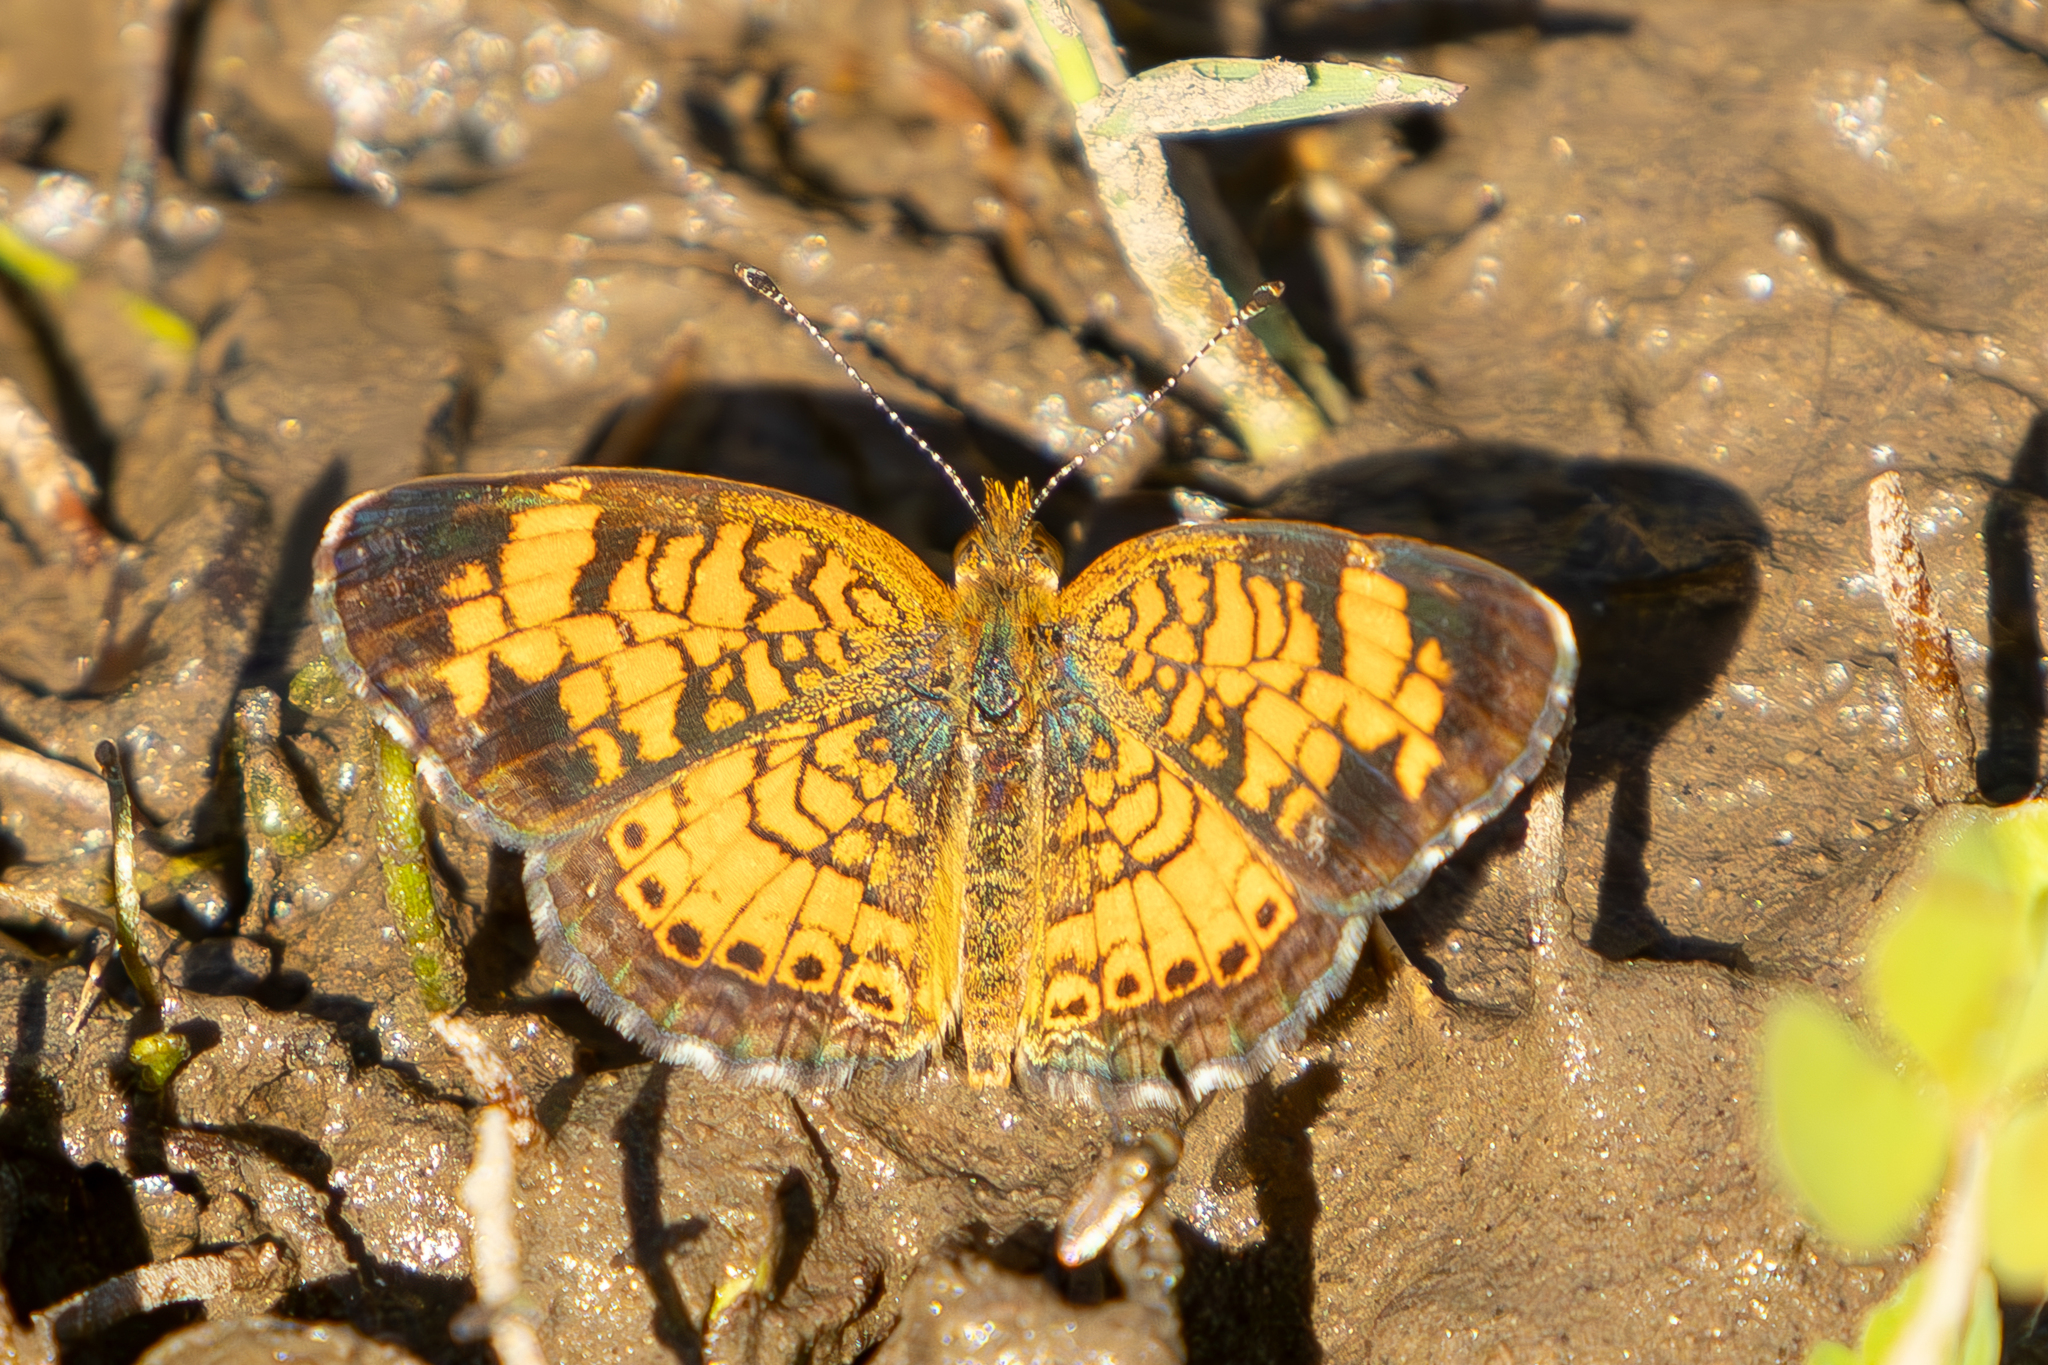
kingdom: Animalia
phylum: Arthropoda
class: Insecta
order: Lepidoptera
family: Nymphalidae
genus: Phyciodes
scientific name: Phyciodes tharos
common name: Pearl crescent
